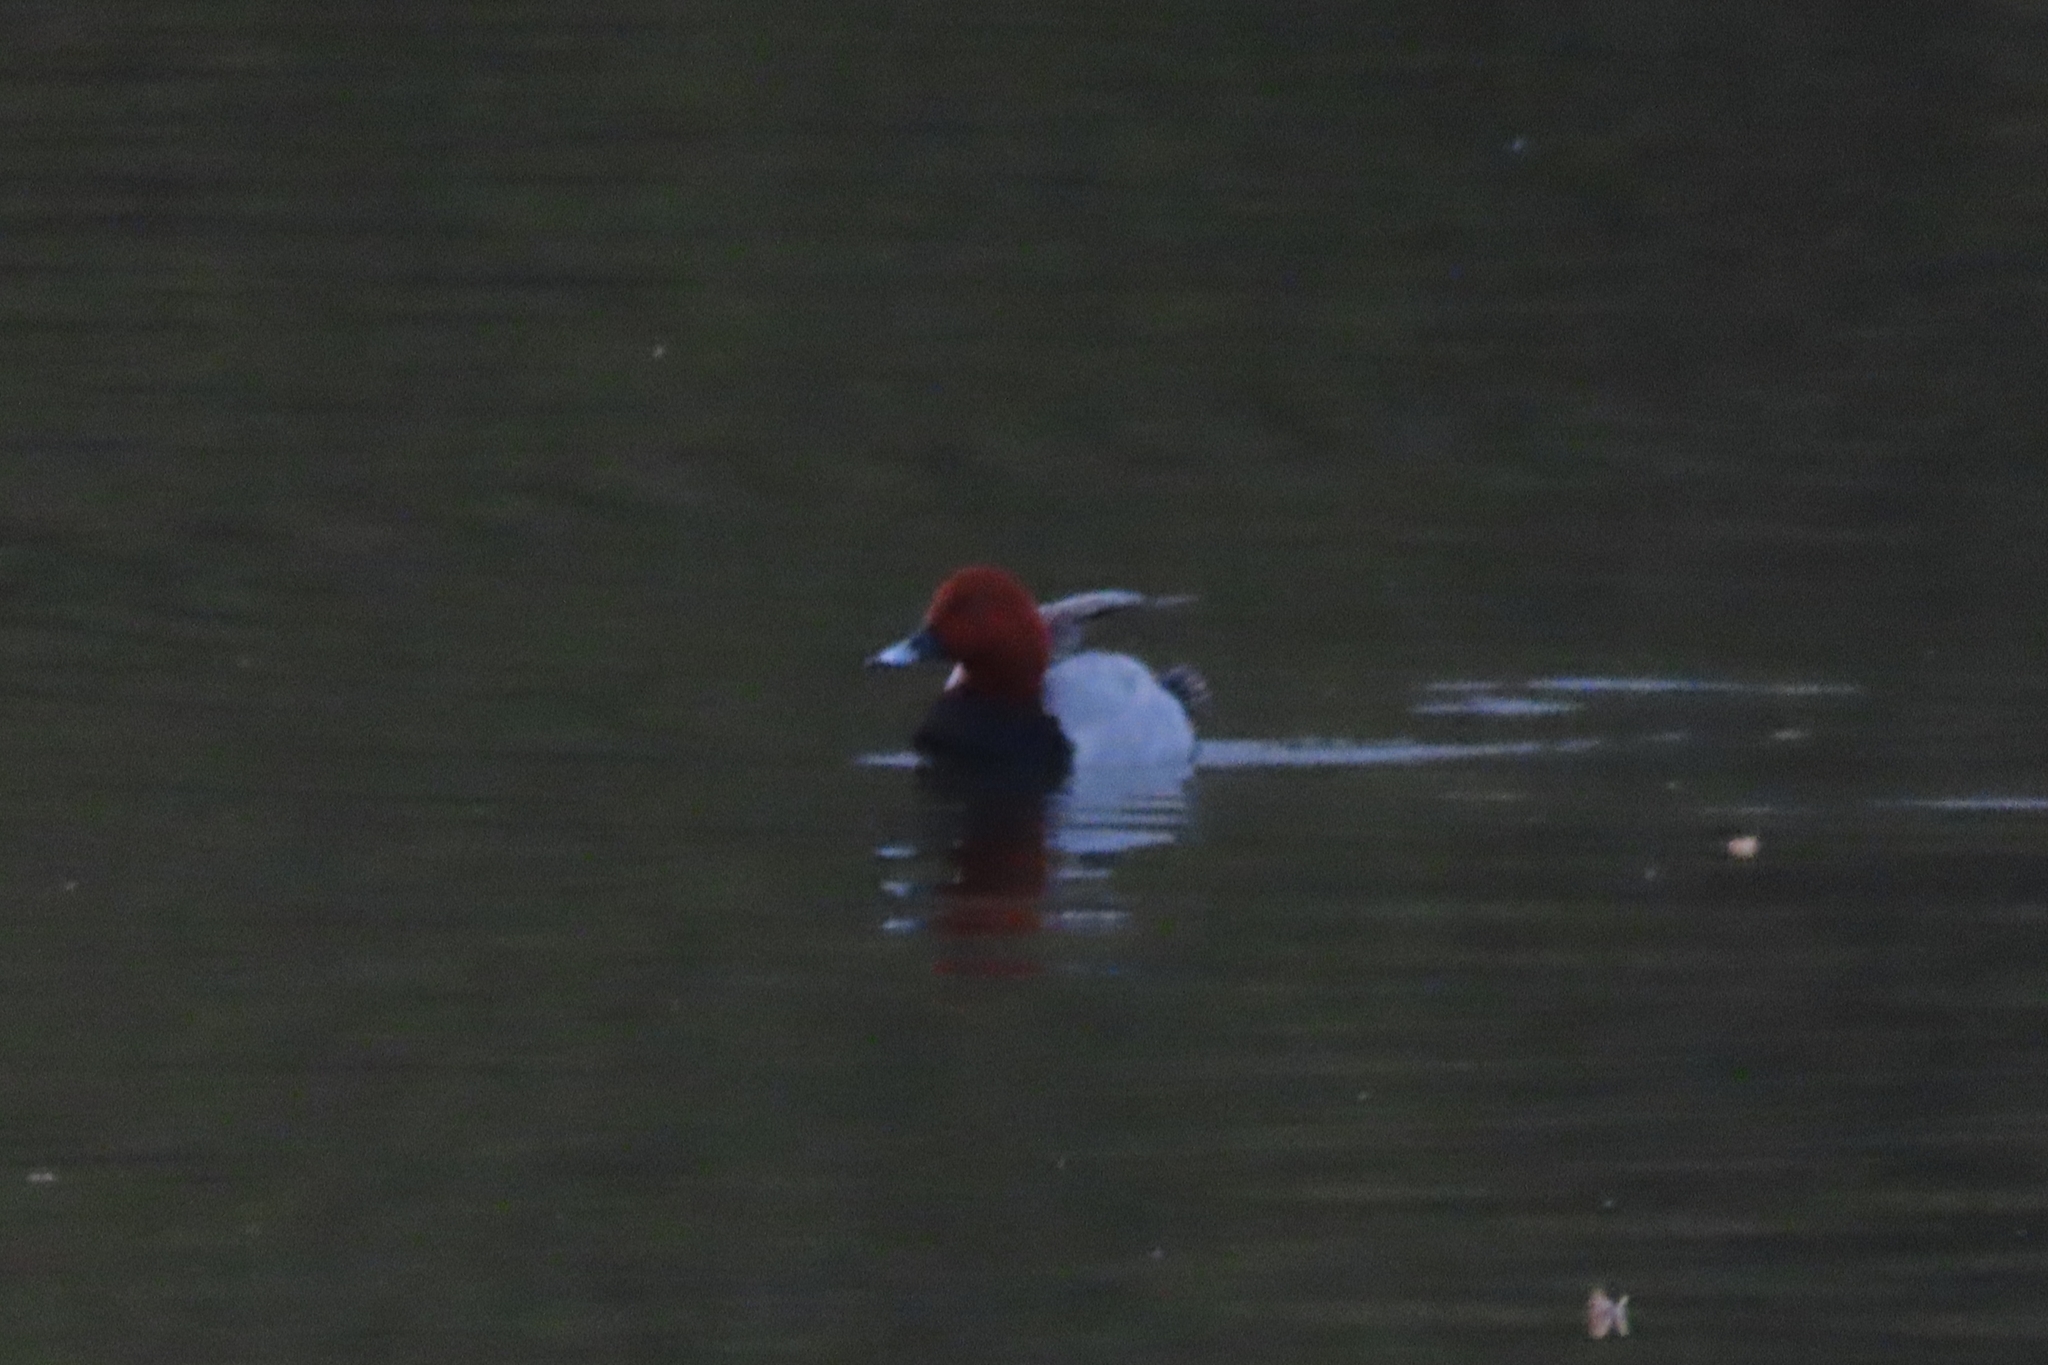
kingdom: Animalia
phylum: Chordata
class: Aves
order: Anseriformes
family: Anatidae
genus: Aythya
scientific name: Aythya ferina
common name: Common pochard
